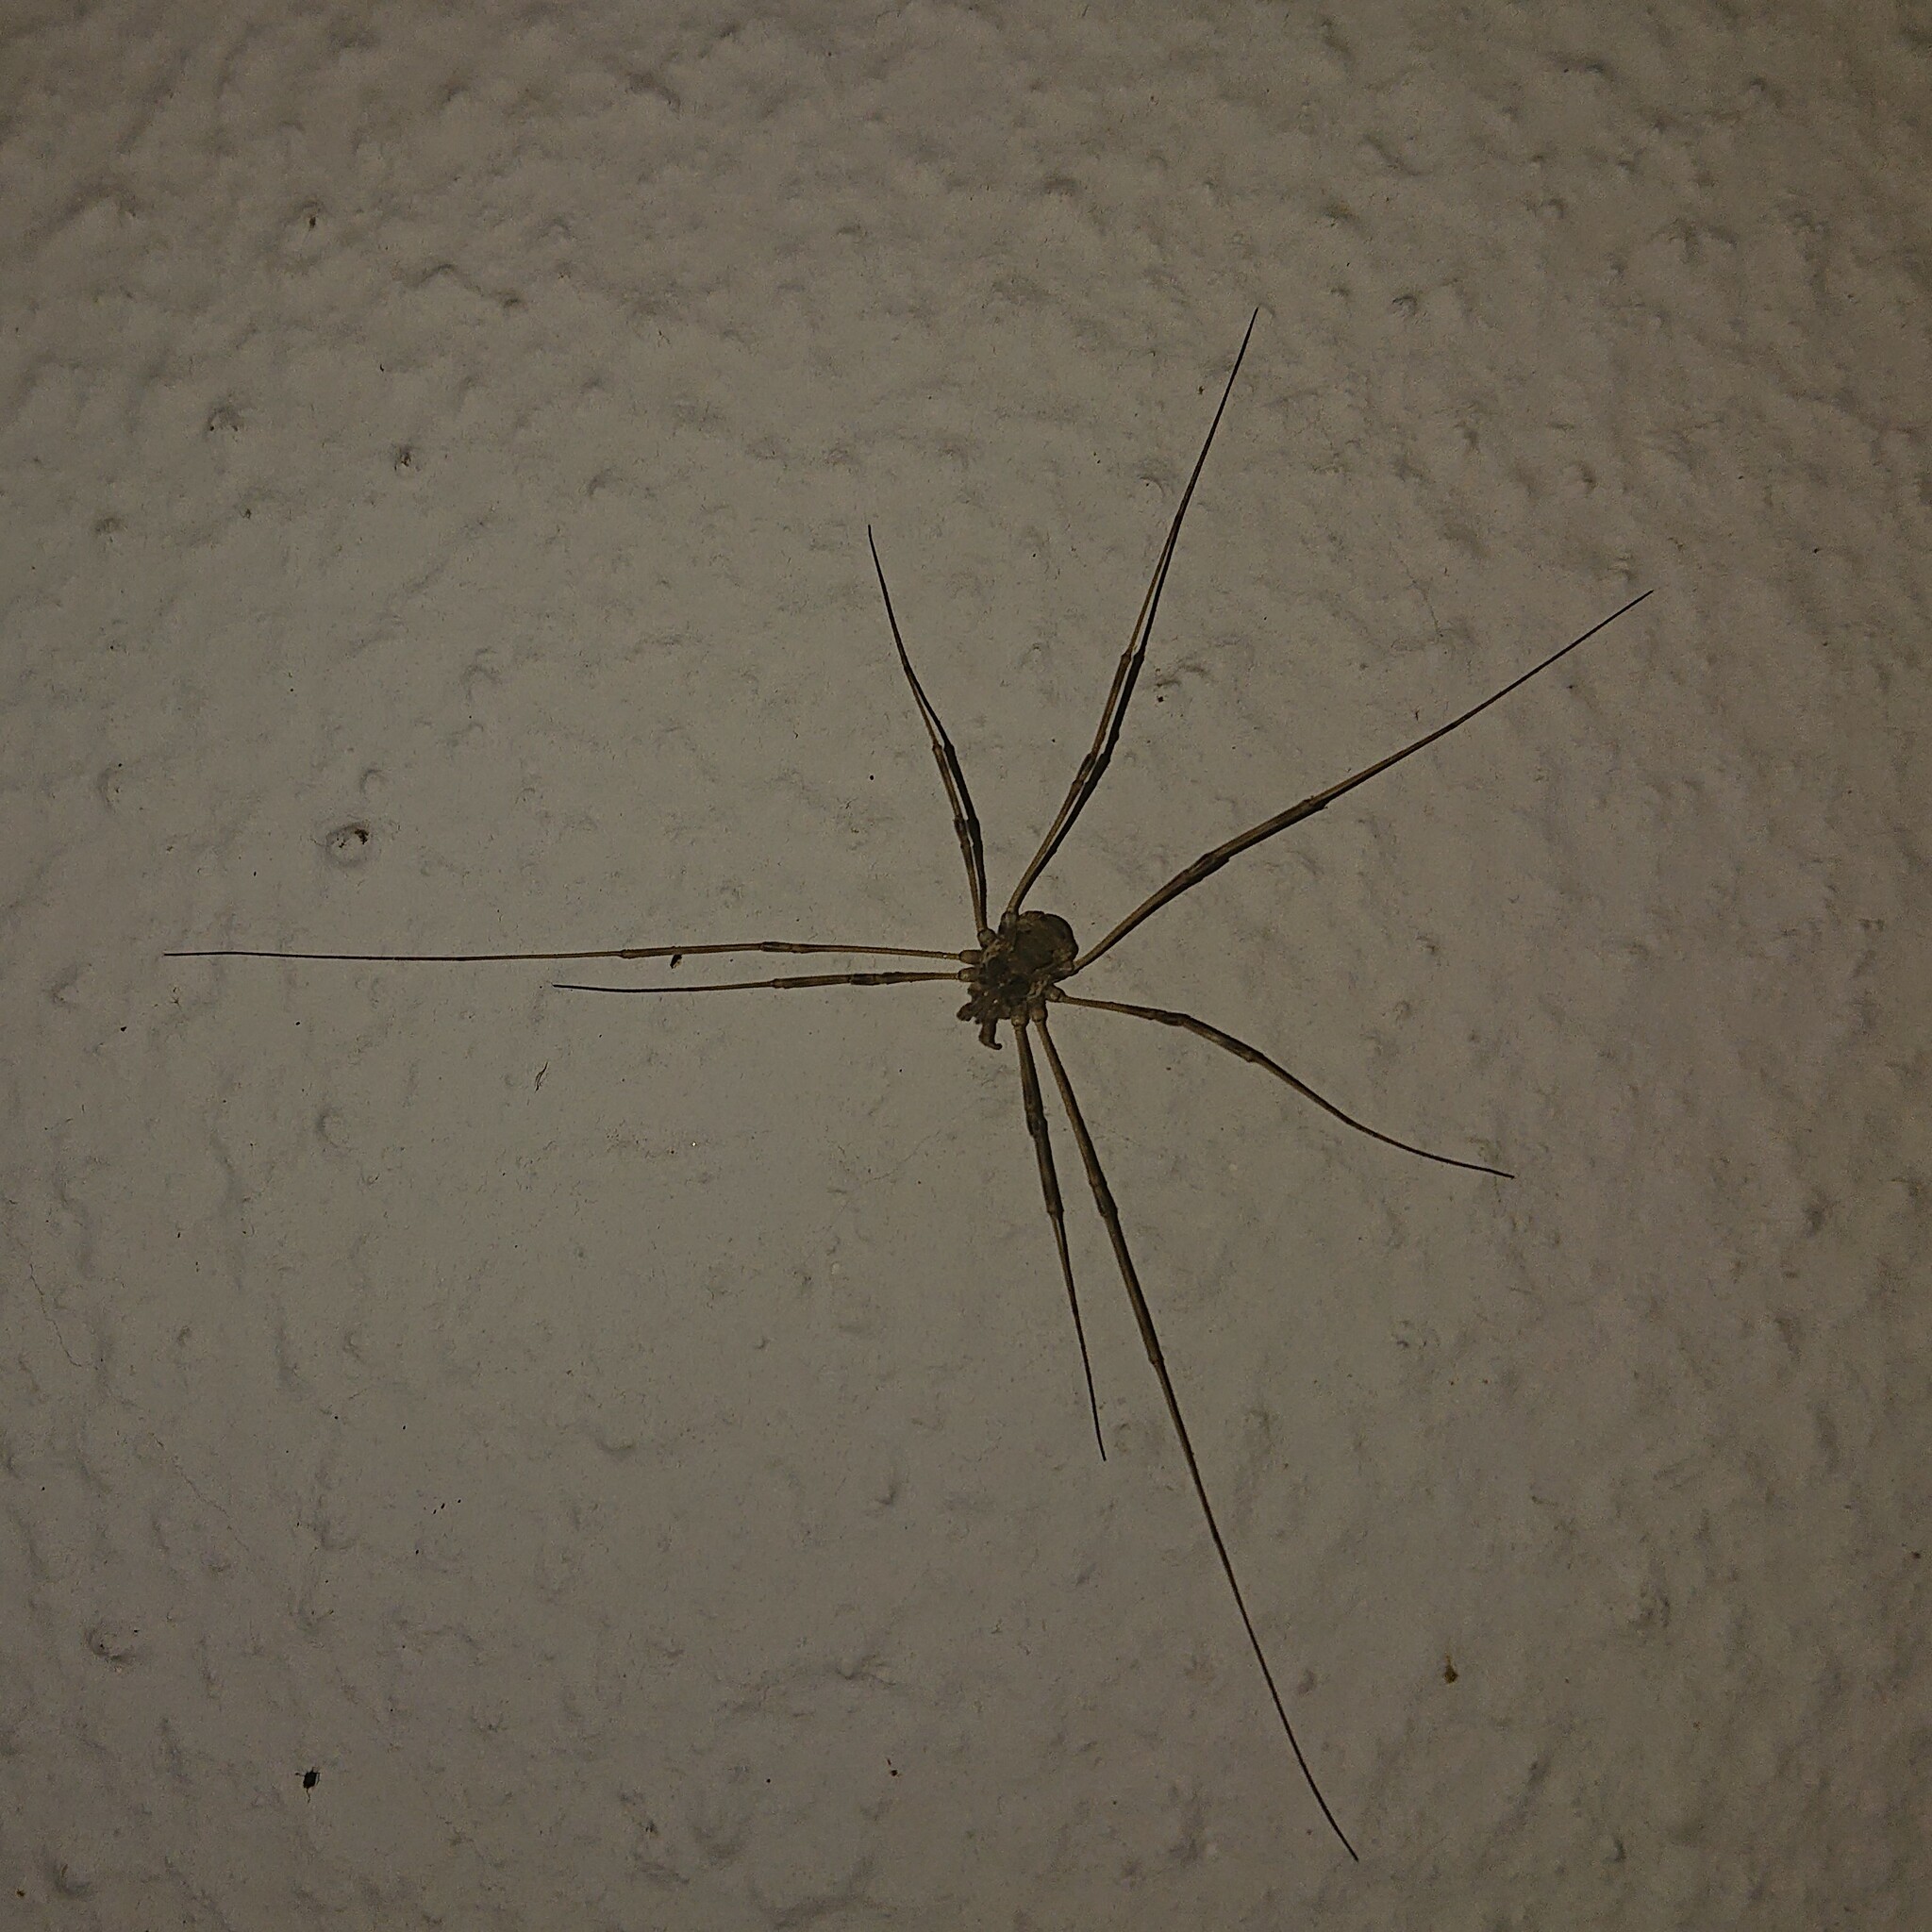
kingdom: Animalia
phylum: Arthropoda
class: Arachnida
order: Opiliones
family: Phalangiidae
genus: Dasylobus
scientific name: Dasylobus graniferus
